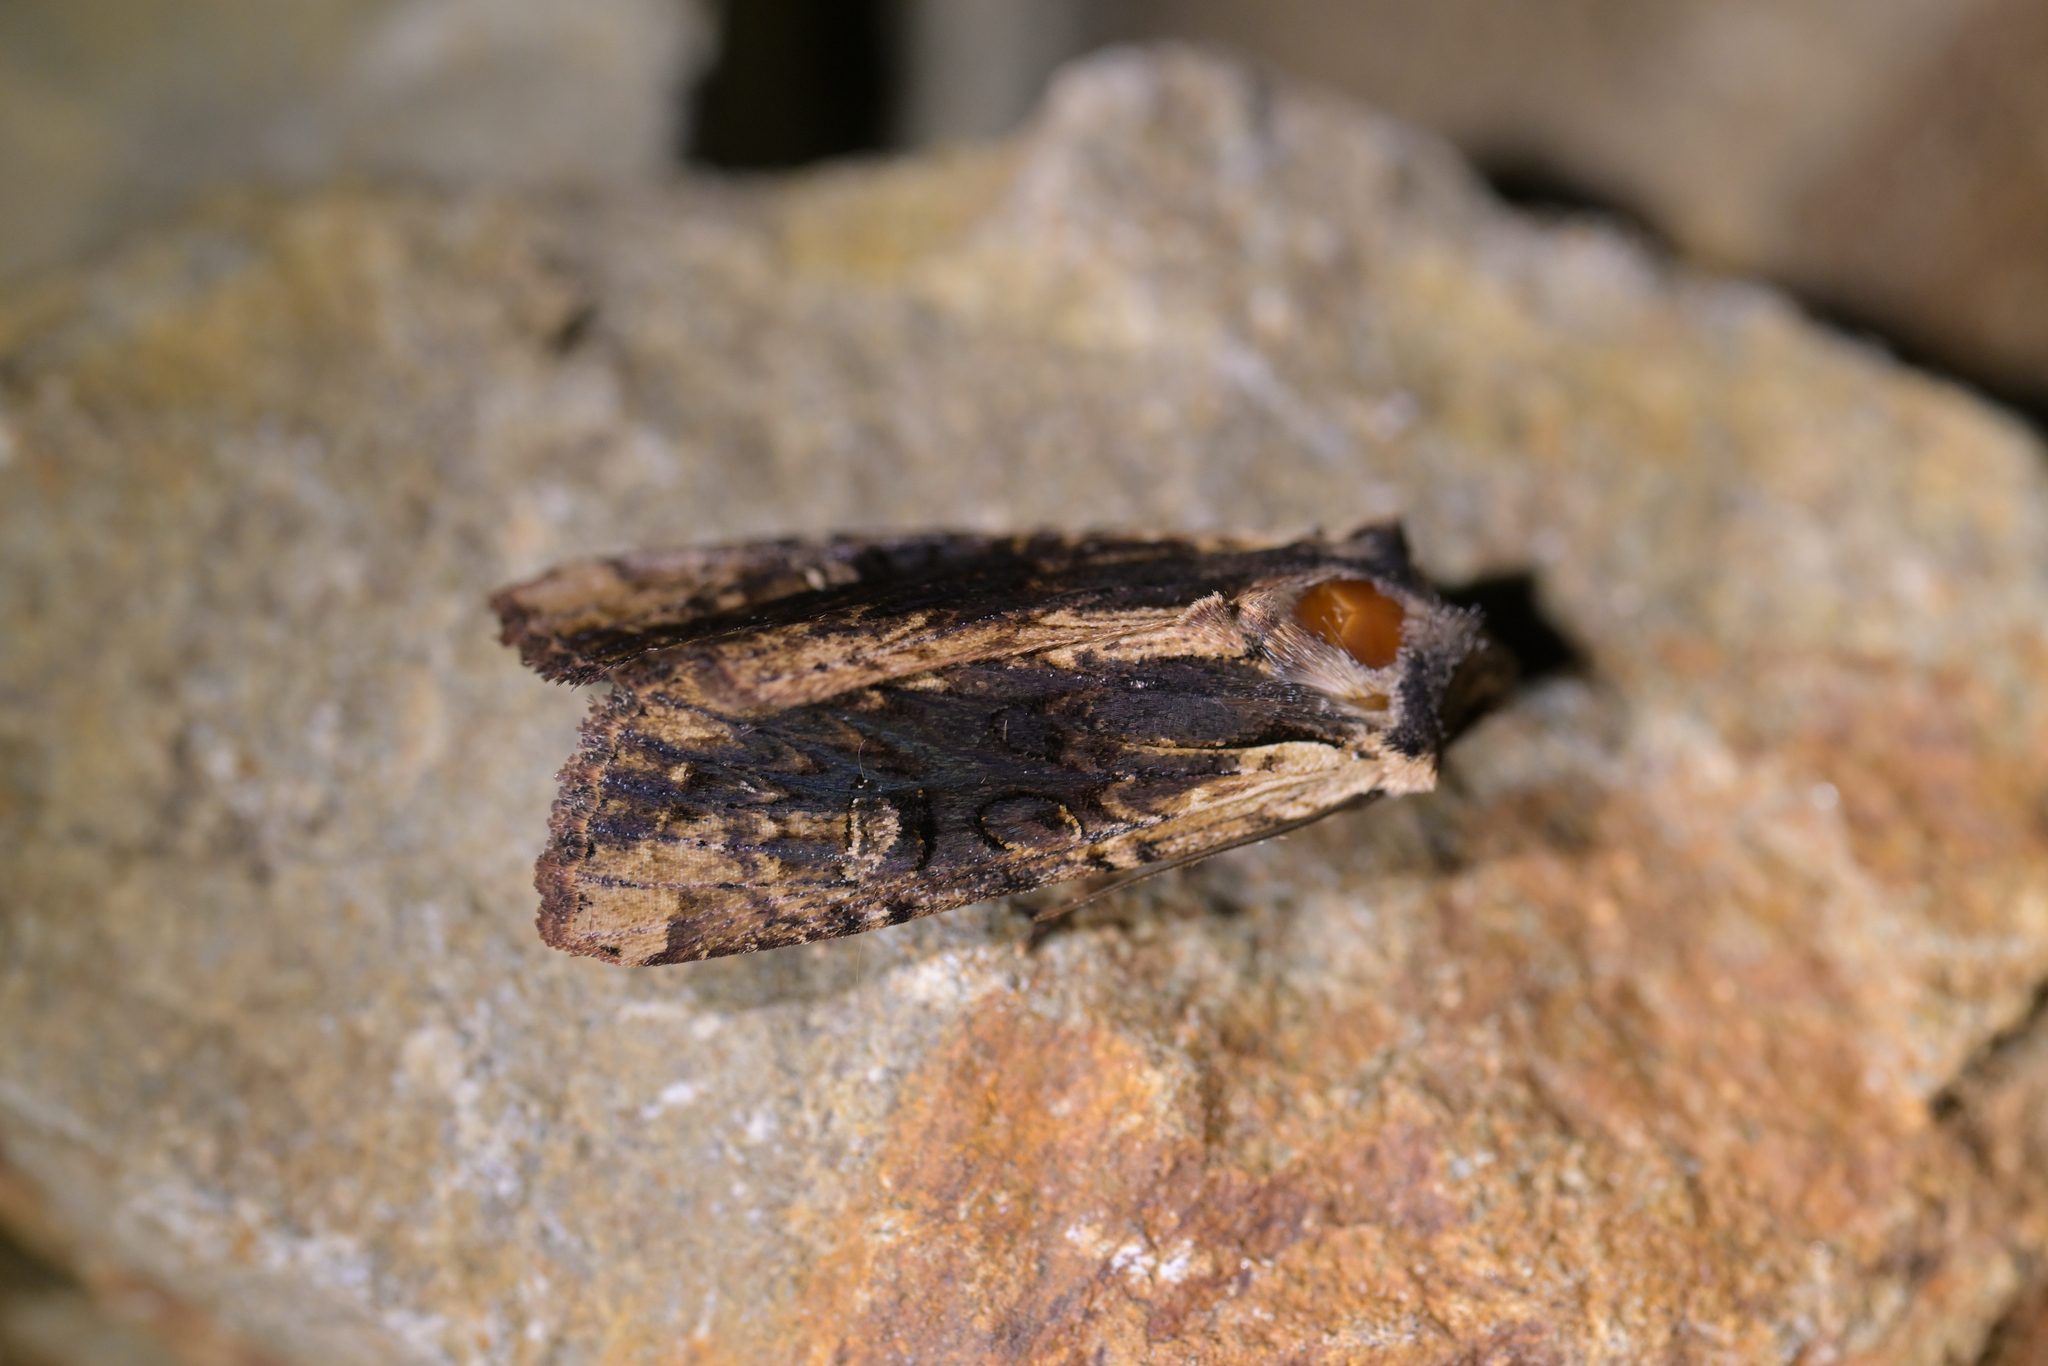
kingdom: Animalia
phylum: Arthropoda
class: Insecta
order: Lepidoptera
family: Noctuidae
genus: Ichneutica
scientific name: Ichneutica omoplaca
